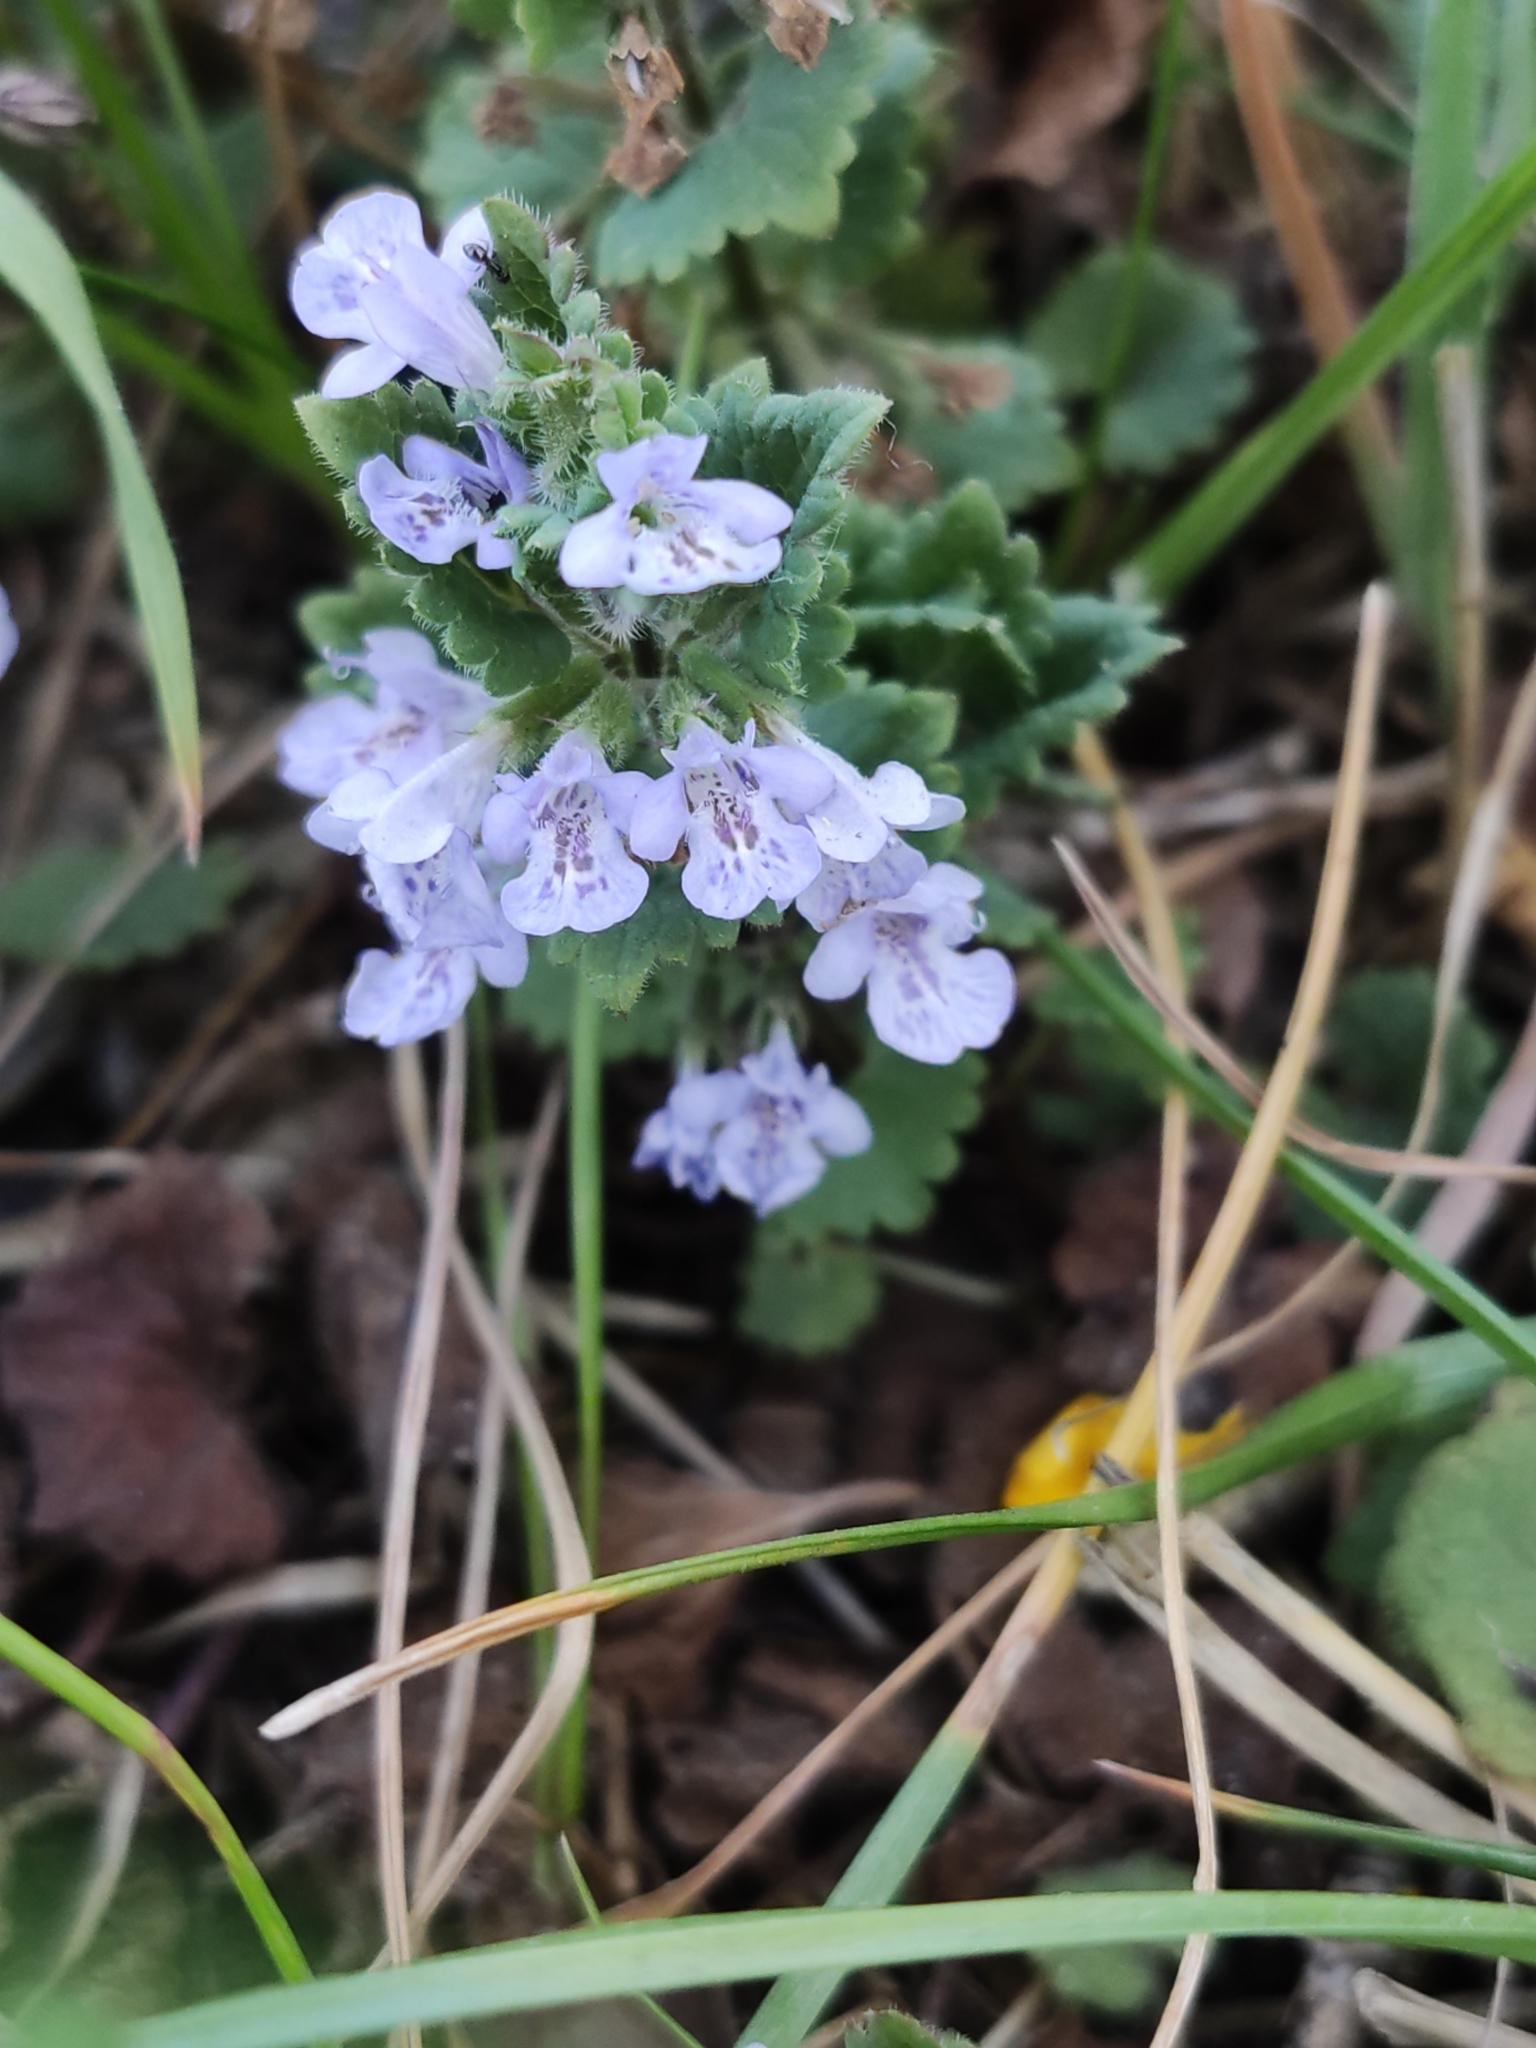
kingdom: Plantae
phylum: Tracheophyta
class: Magnoliopsida
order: Lamiales
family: Lamiaceae
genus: Glechoma
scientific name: Glechoma hederacea
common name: Ground ivy
